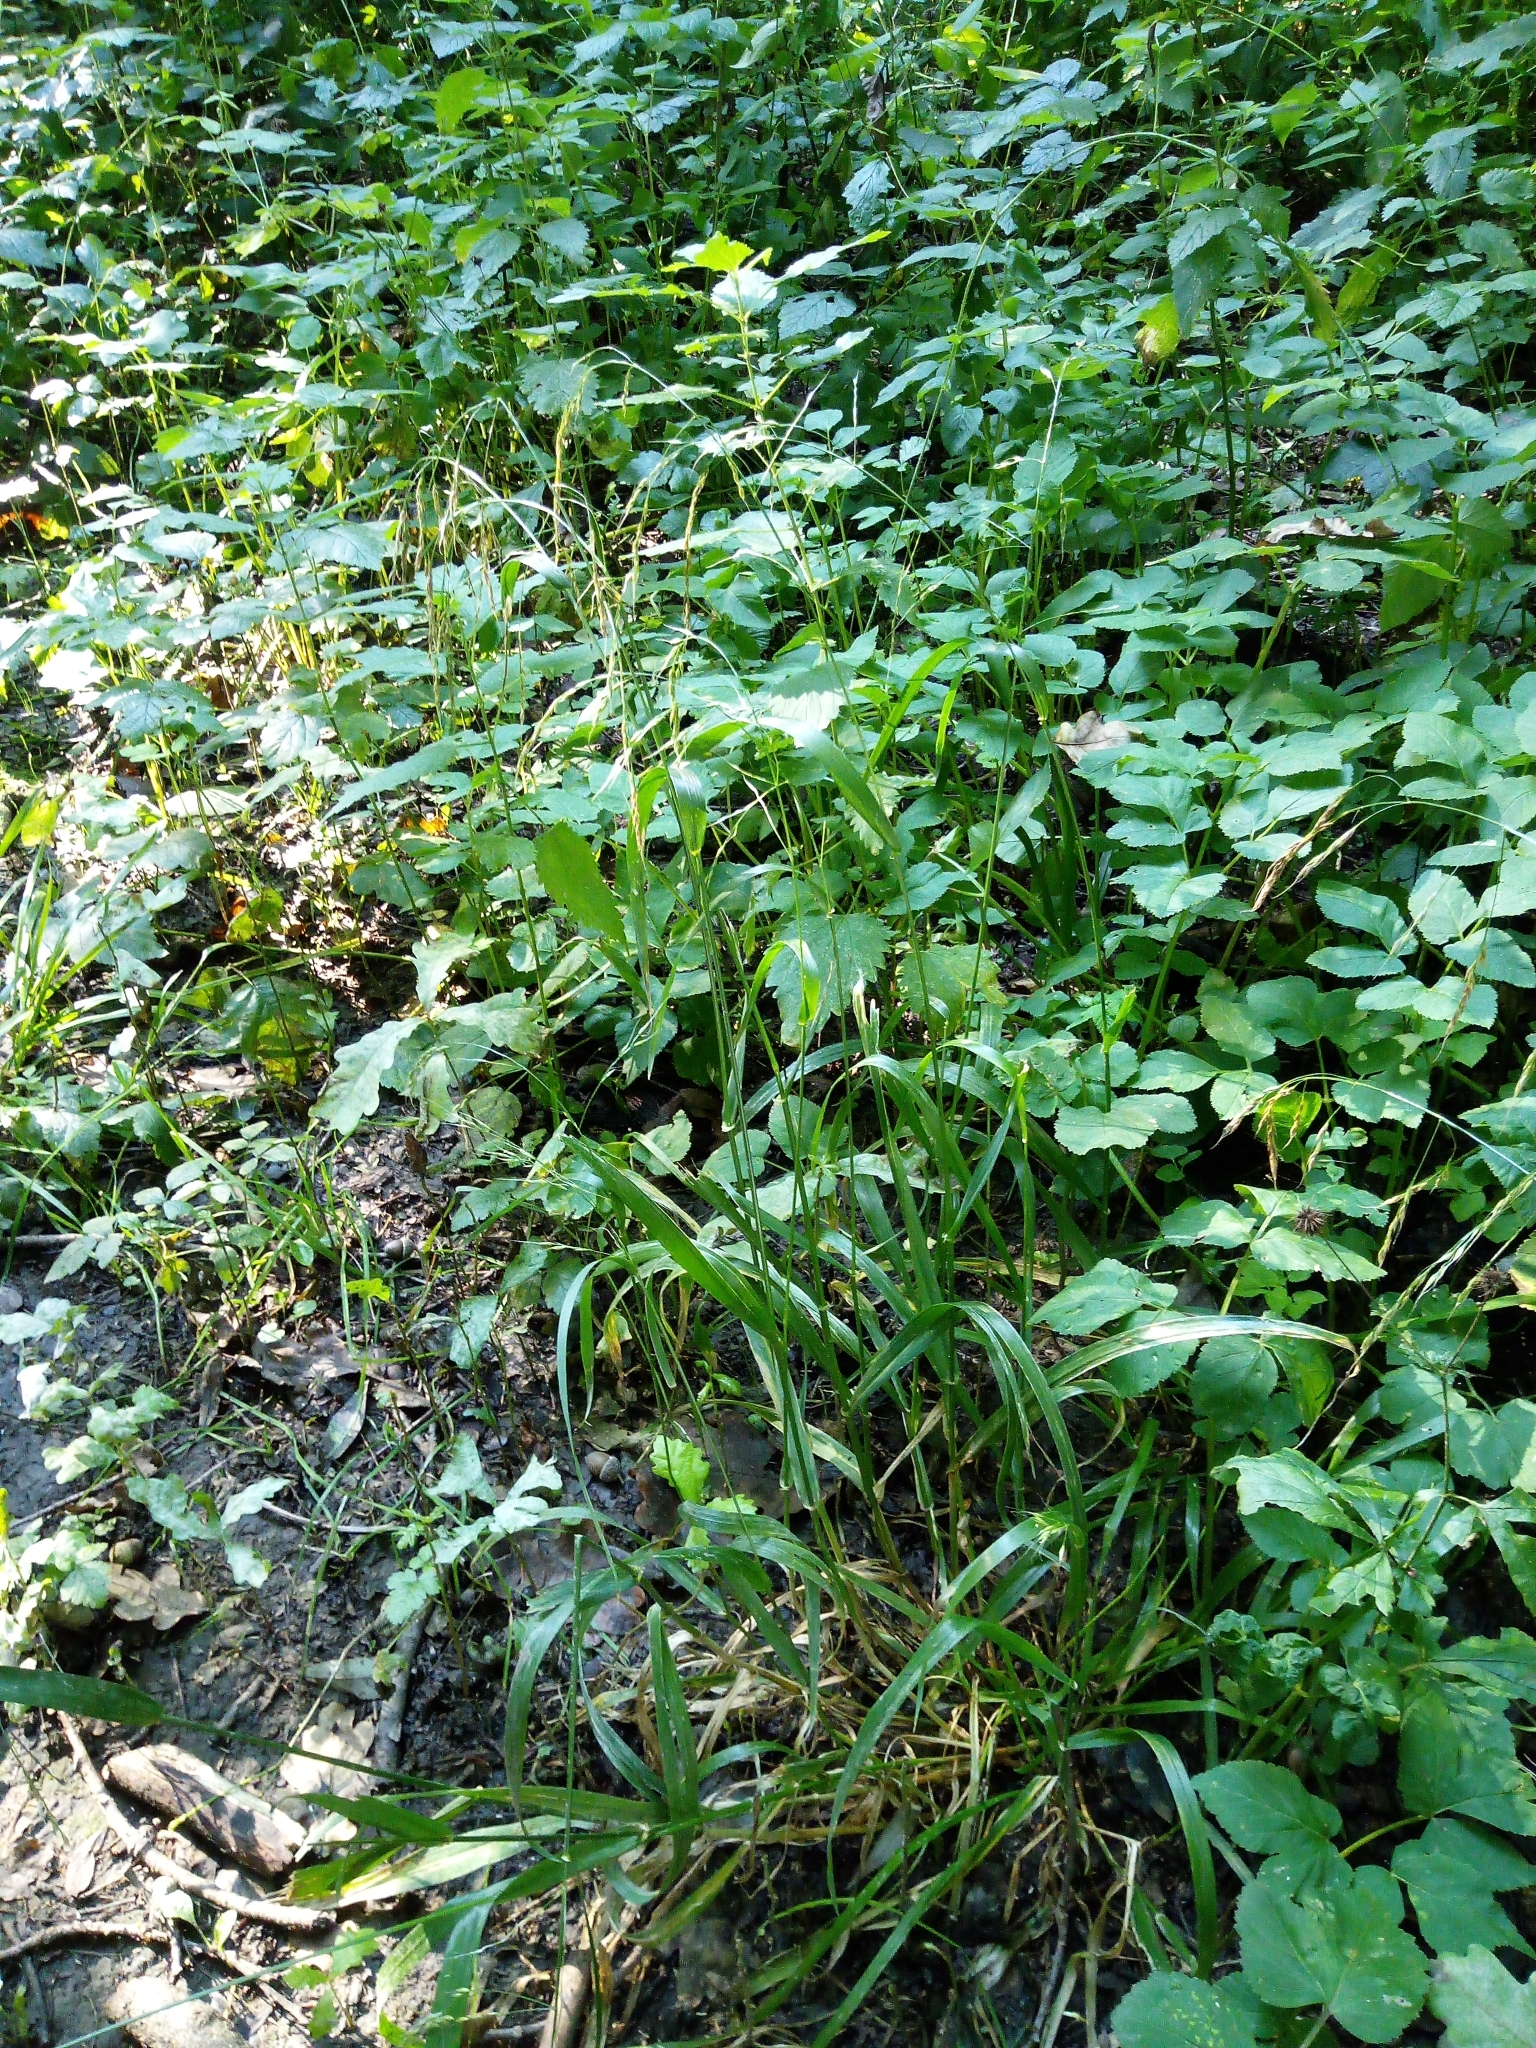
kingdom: Plantae
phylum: Tracheophyta
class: Liliopsida
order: Poales
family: Poaceae
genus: Lolium
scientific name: Lolium giganteum
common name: Giant fescue
